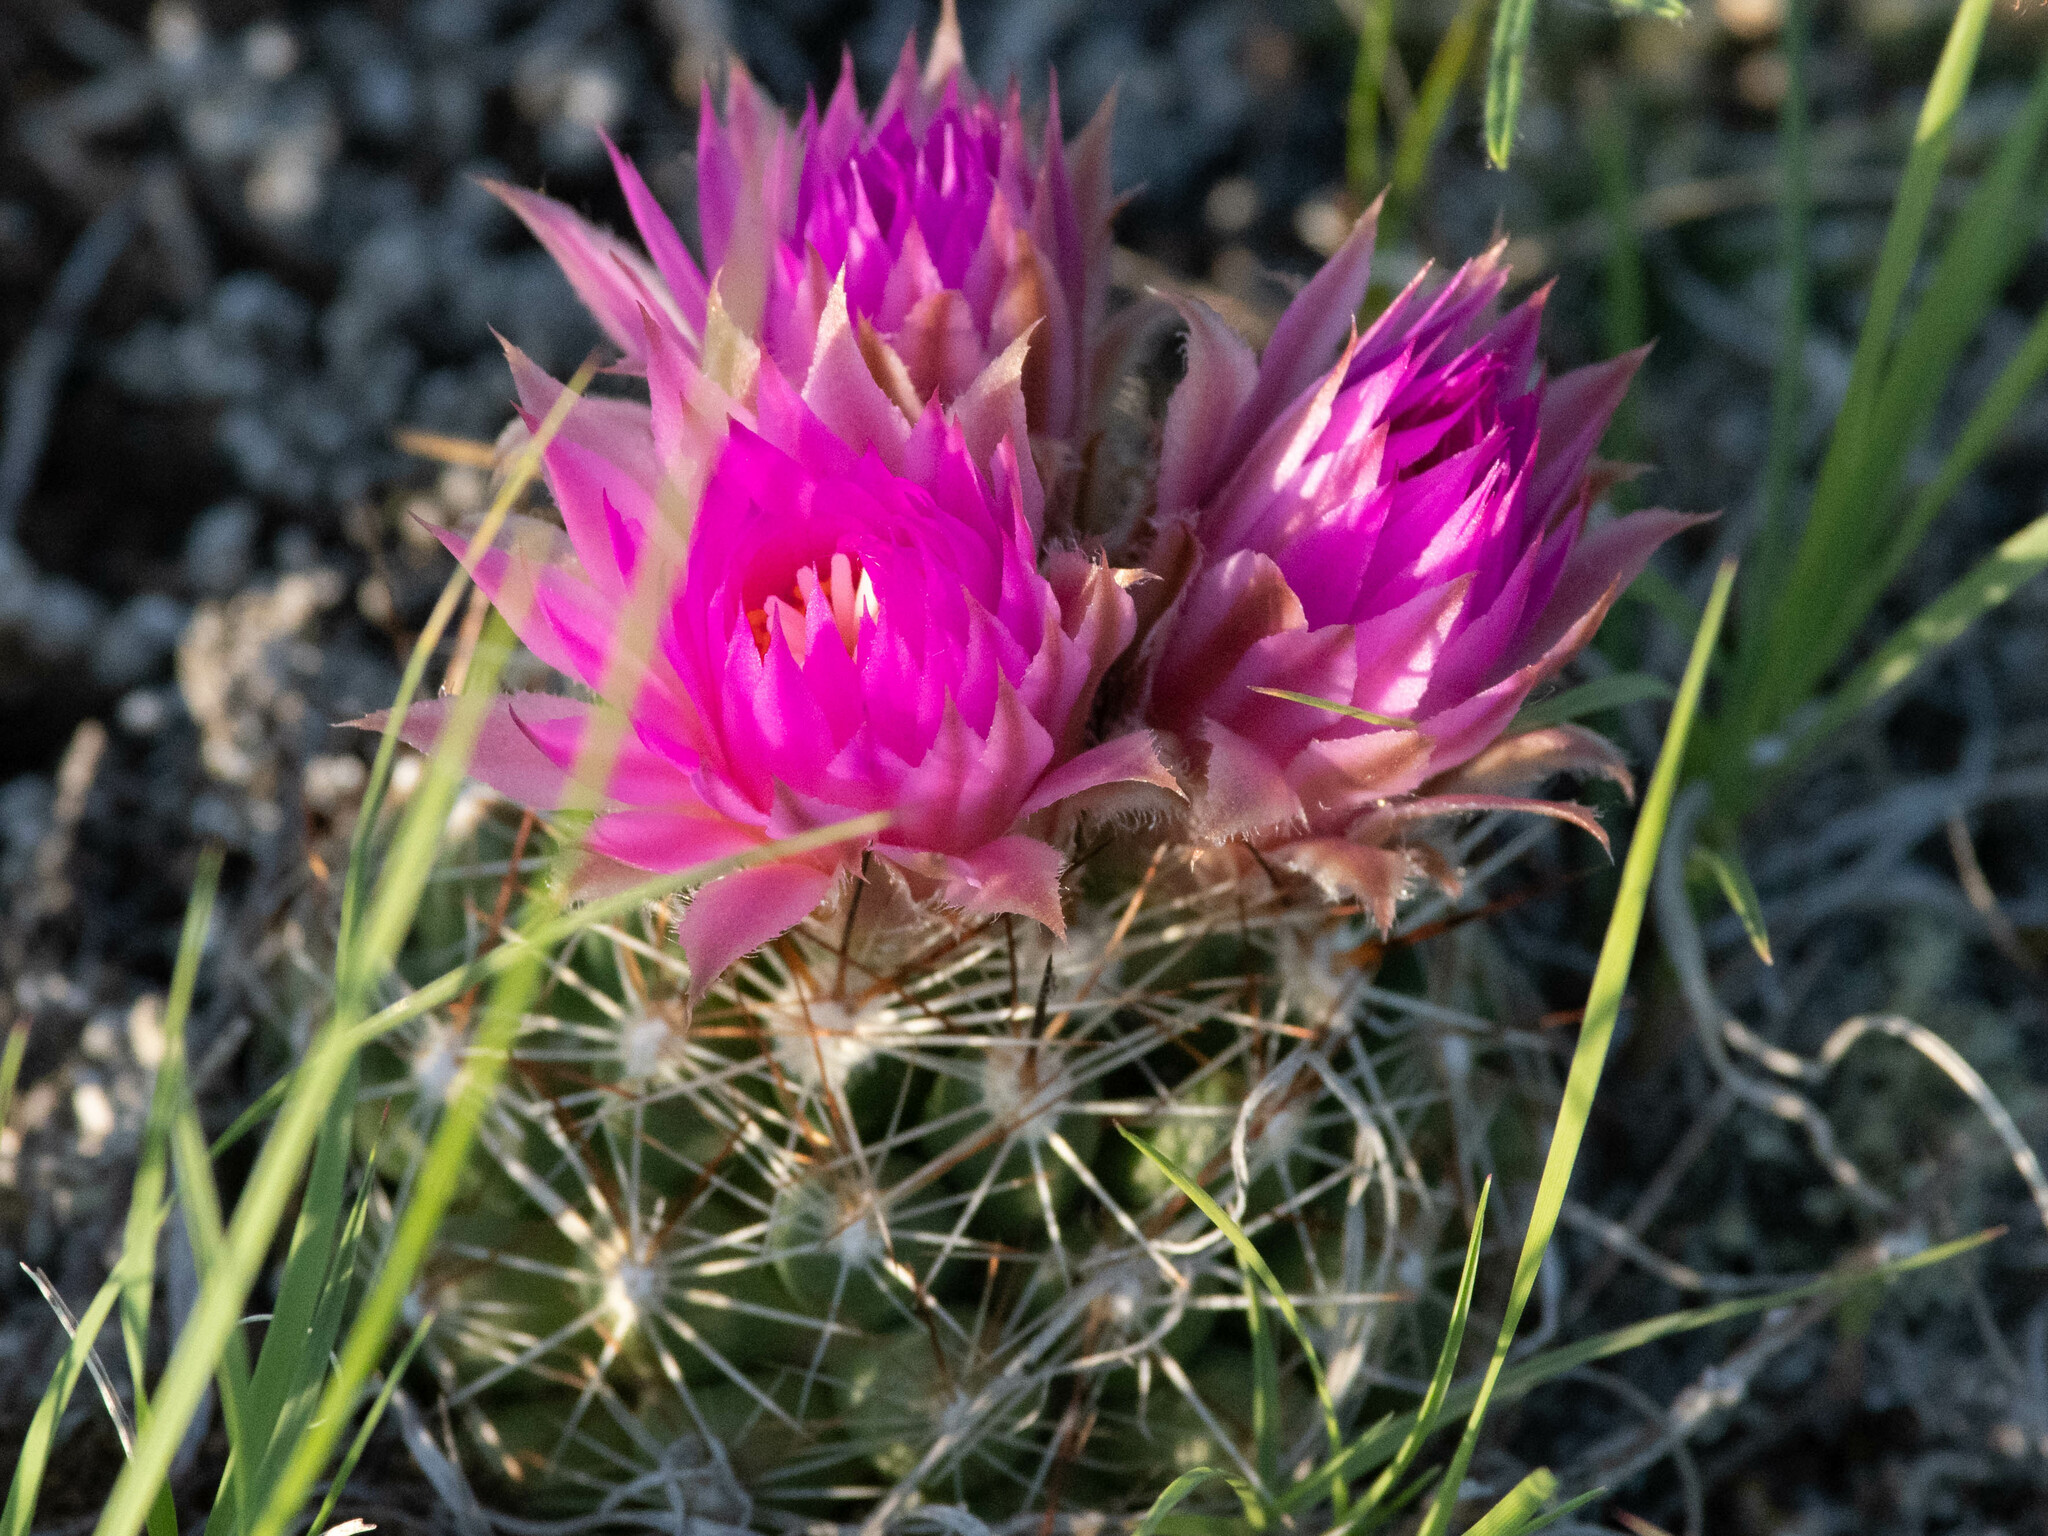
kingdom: Plantae
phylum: Tracheophyta
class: Magnoliopsida
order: Caryophyllales
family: Cactaceae
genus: Pelecyphora
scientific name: Pelecyphora vivipara
